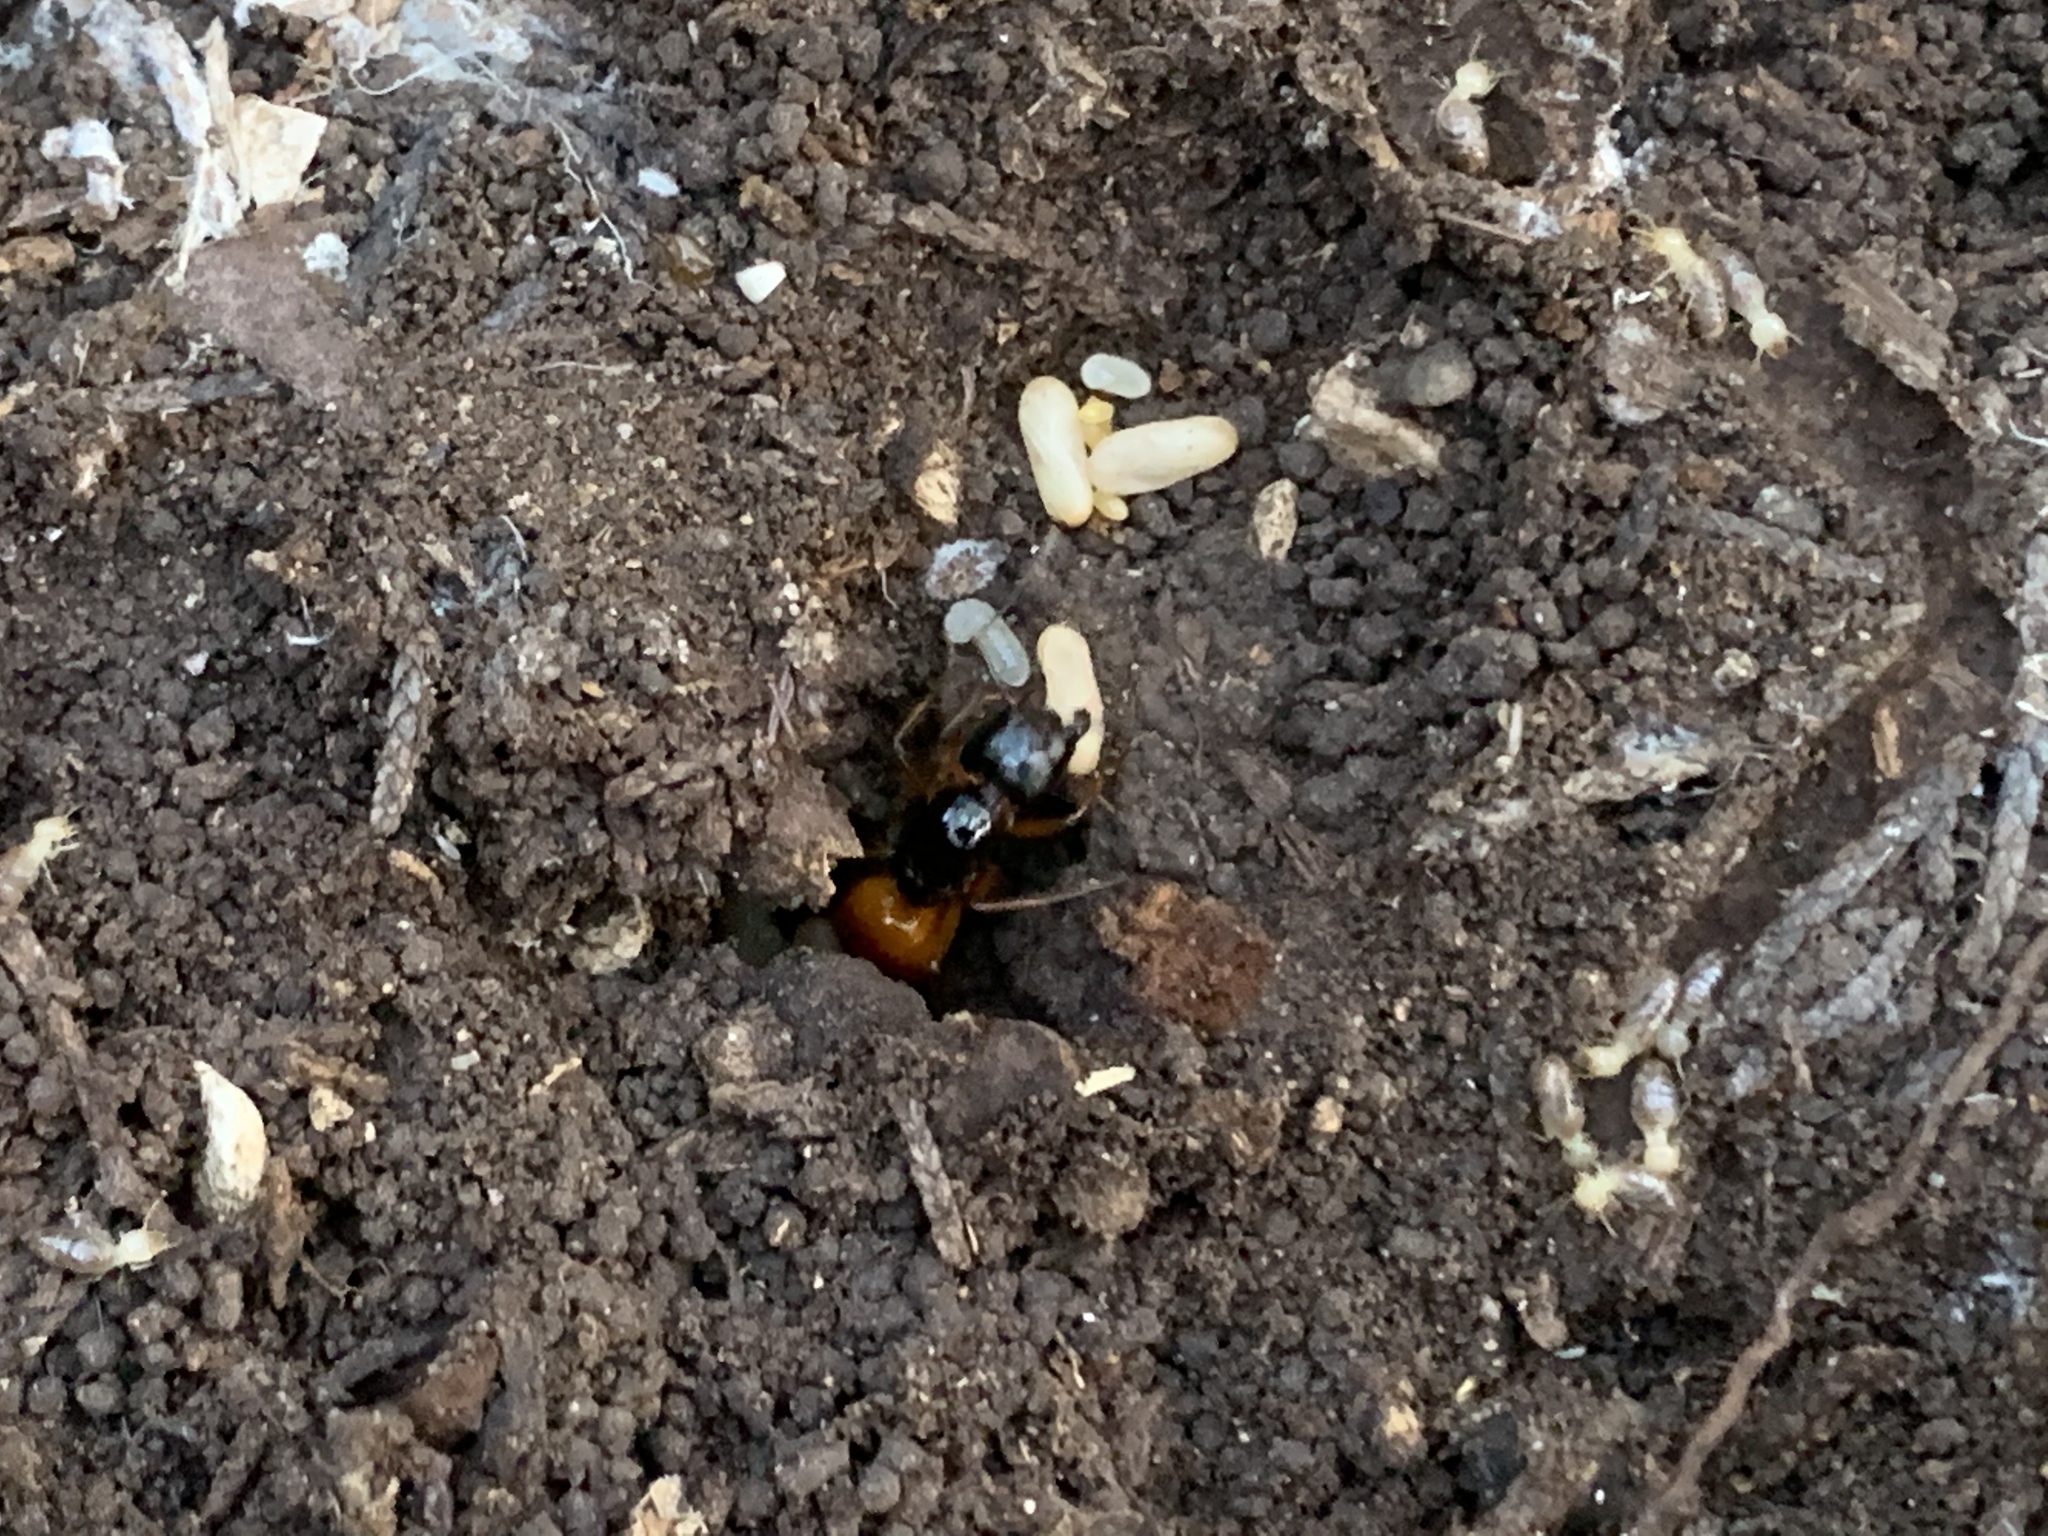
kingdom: Animalia
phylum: Arthropoda
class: Insecta
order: Hymenoptera
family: Formicidae
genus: Camponotus
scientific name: Camponotus sansabeanus
